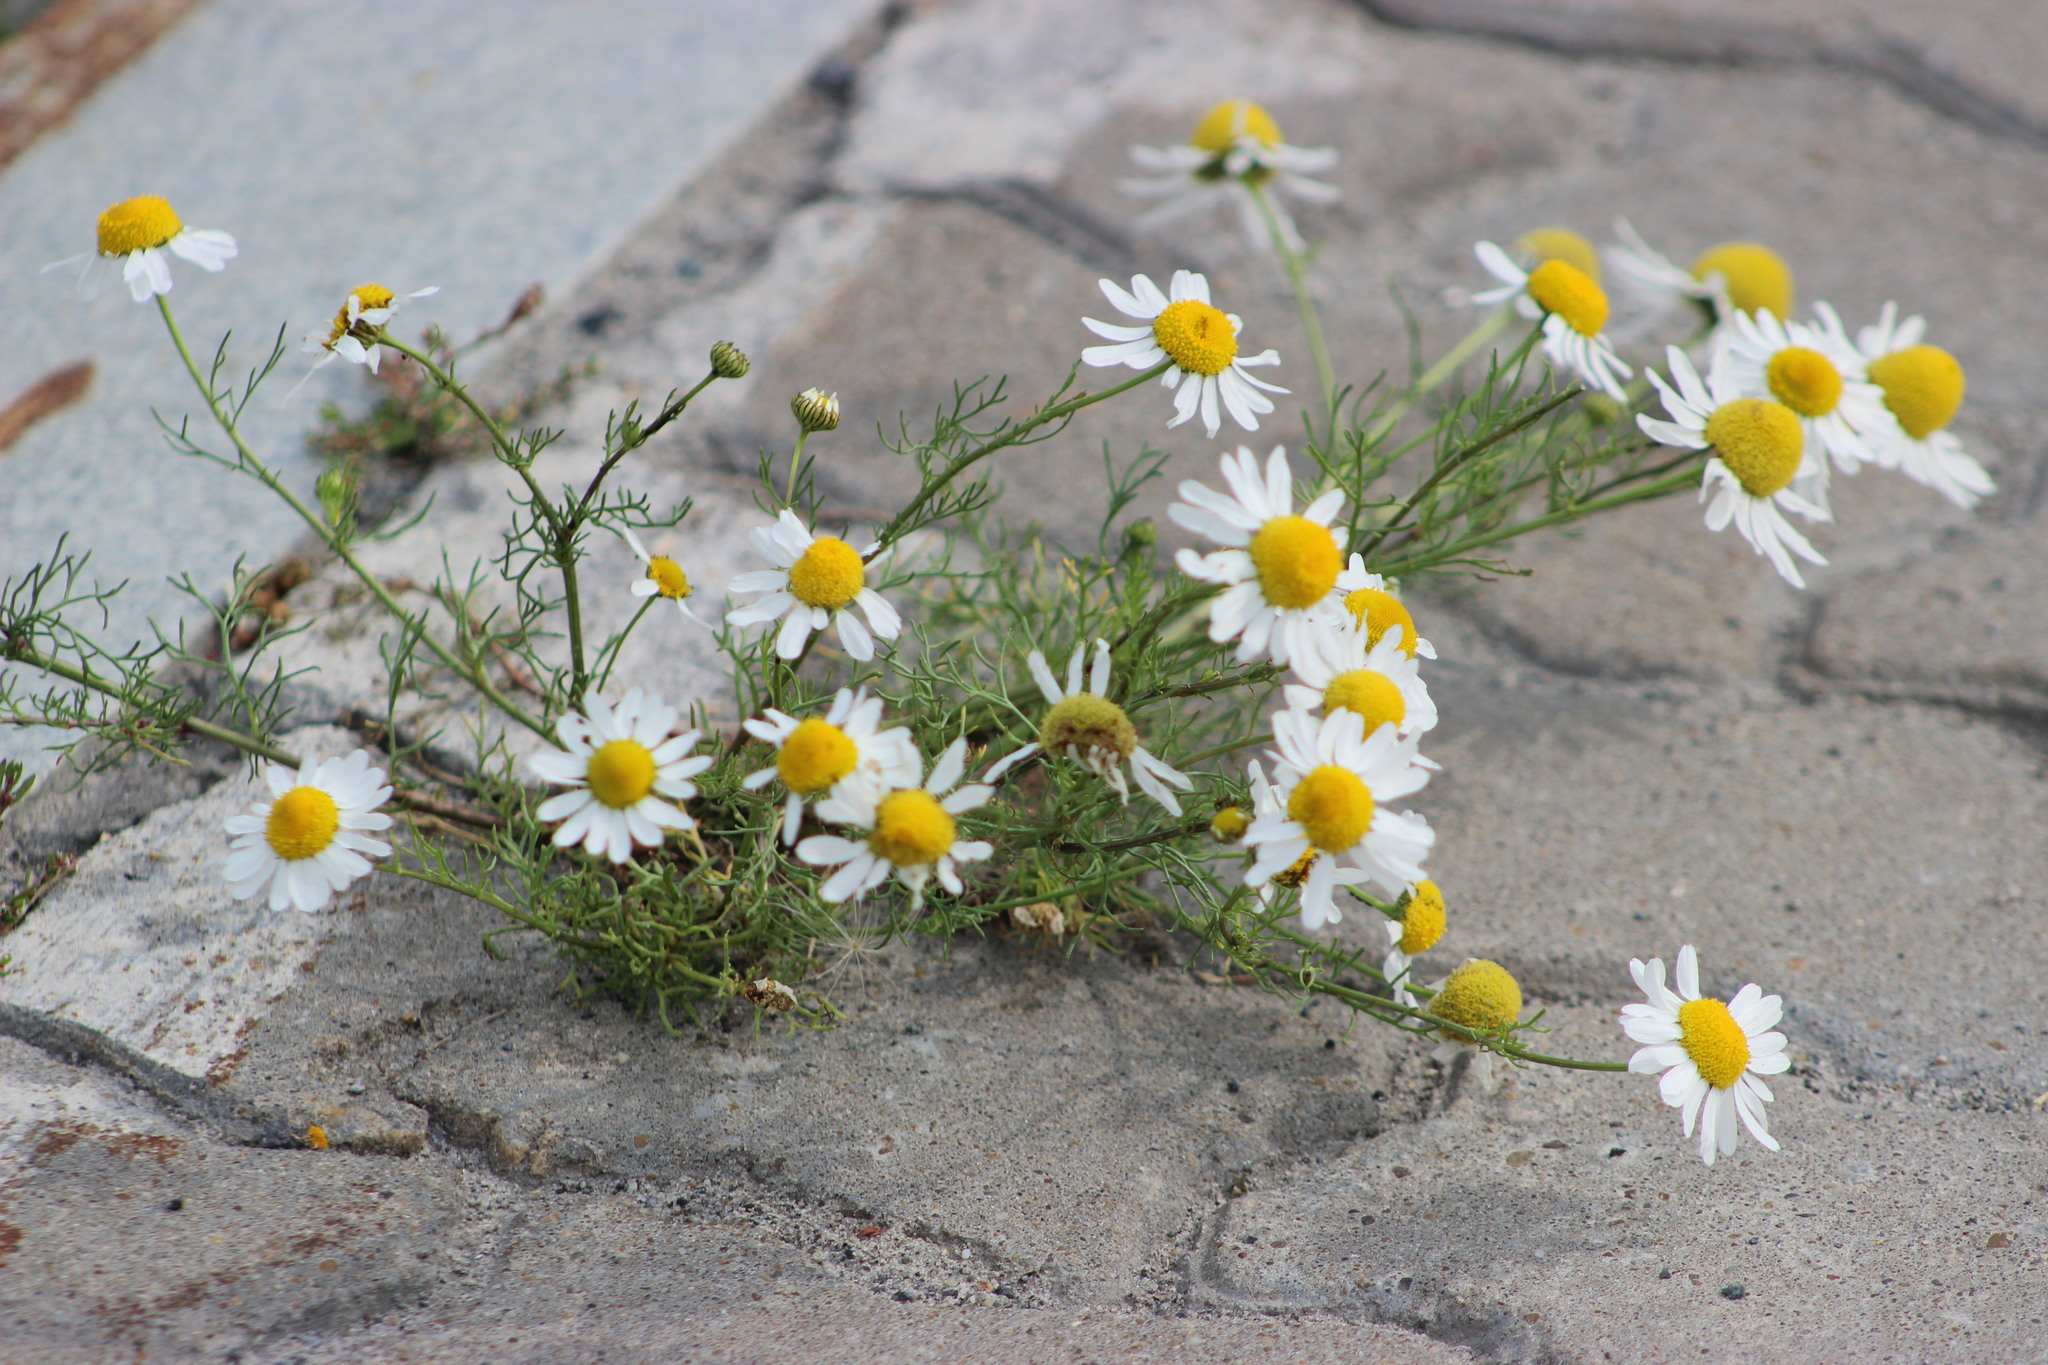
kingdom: Plantae
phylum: Tracheophyta
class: Magnoliopsida
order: Asterales
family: Asteraceae
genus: Tripleurospermum
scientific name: Tripleurospermum inodorum
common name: Scentless mayweed
